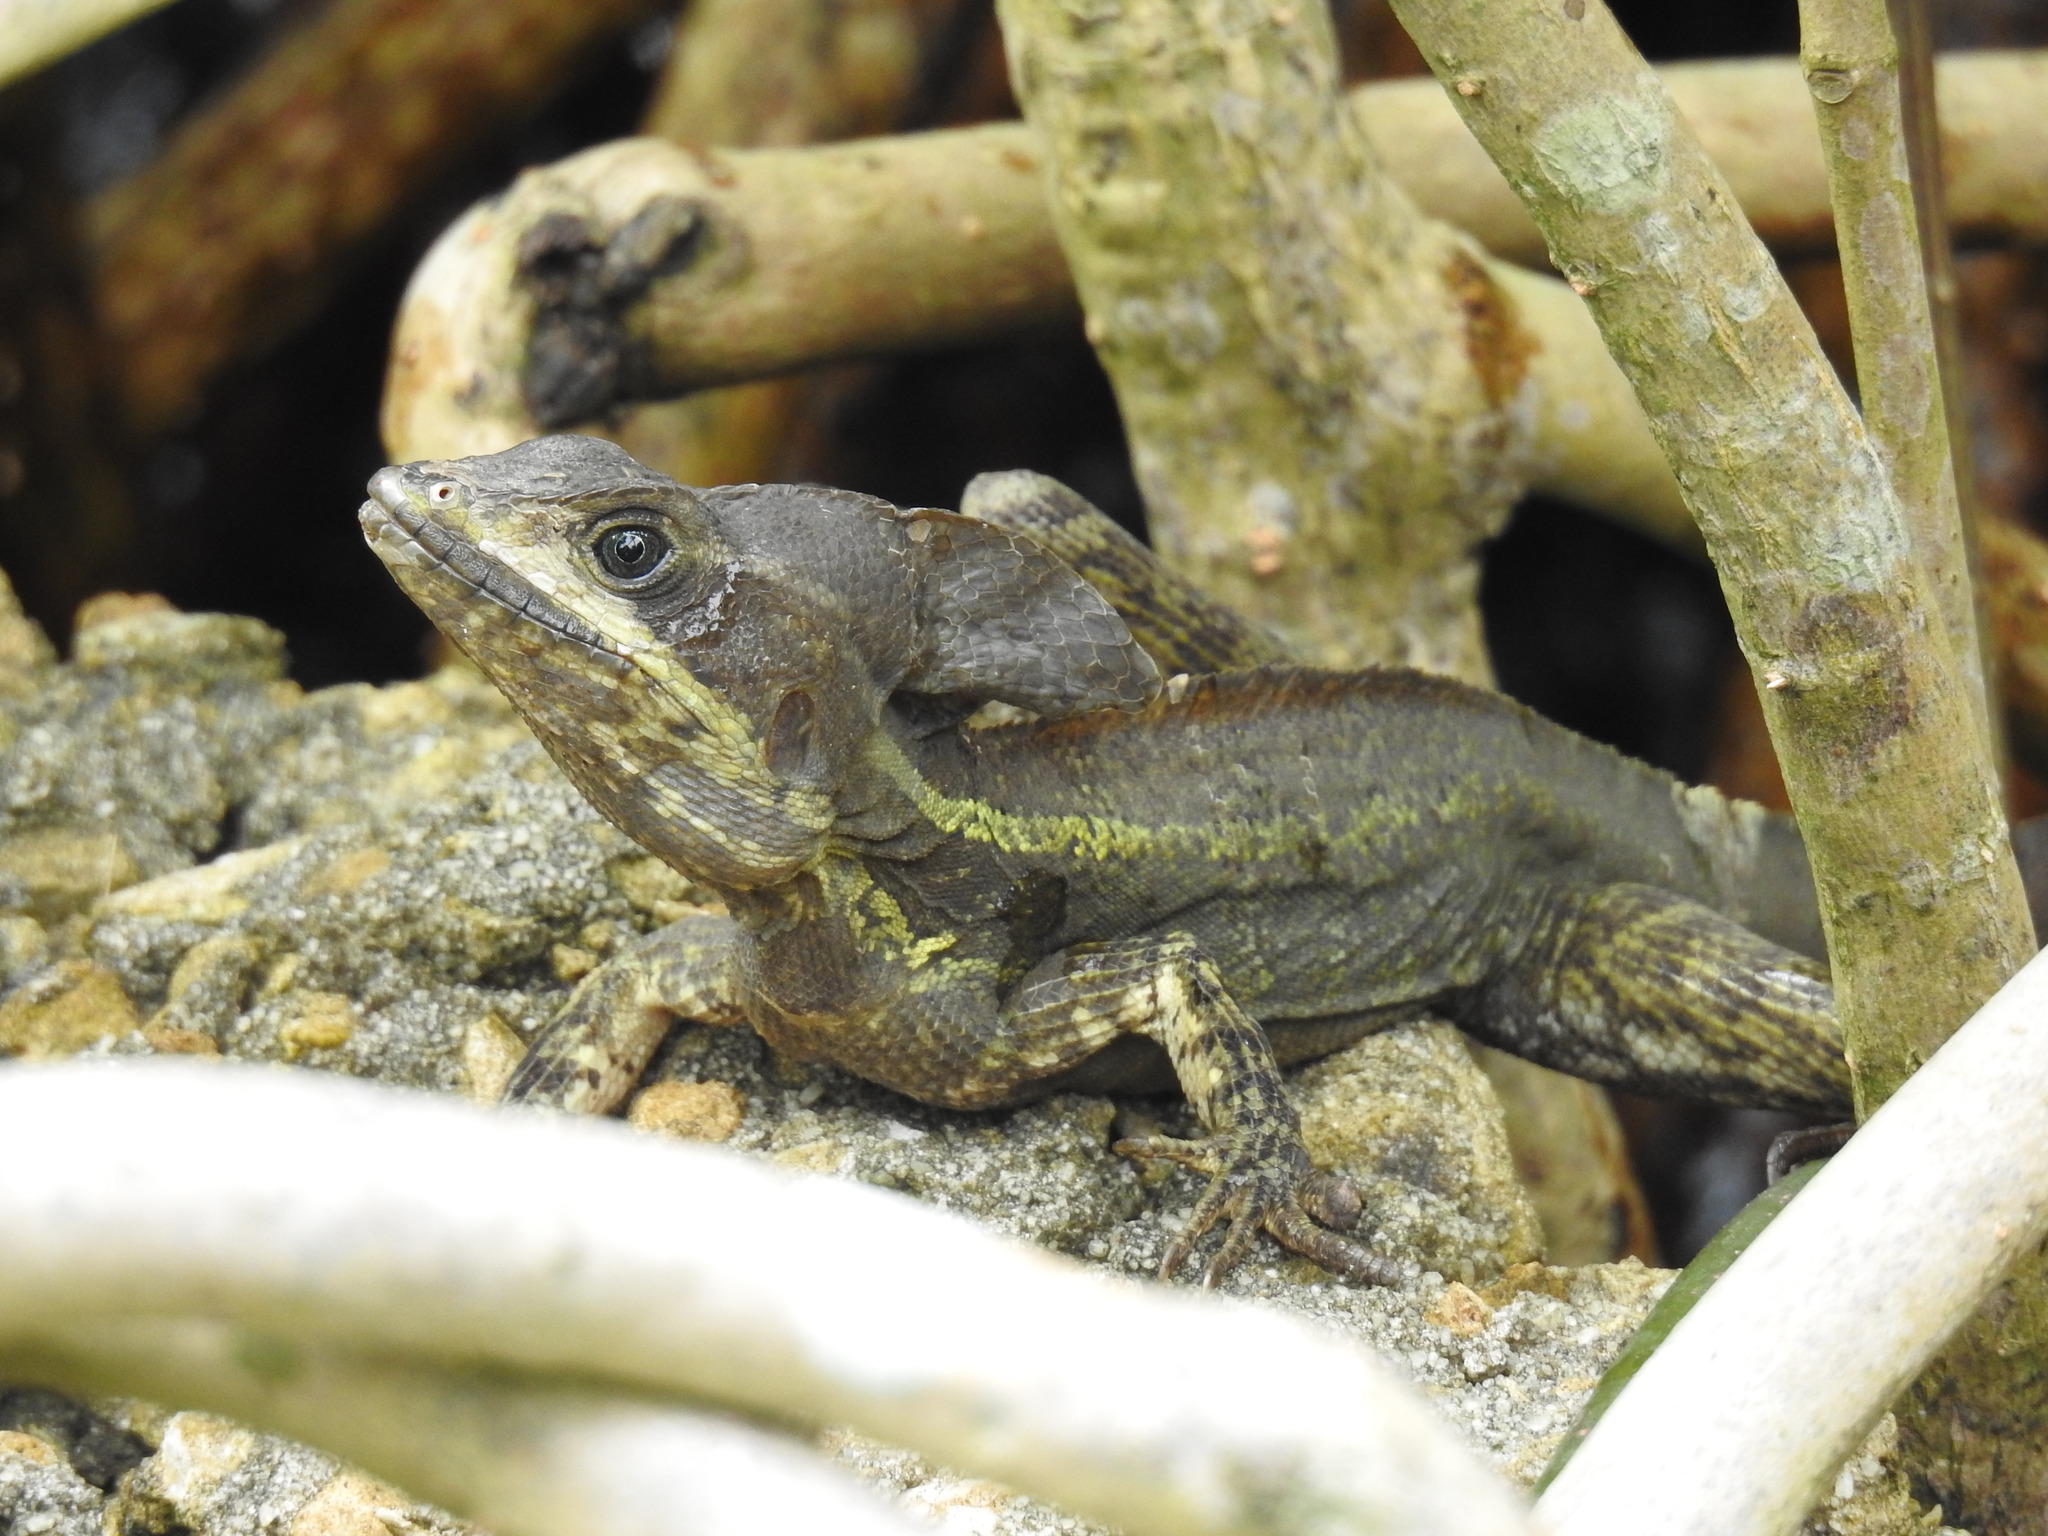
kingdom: Animalia
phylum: Chordata
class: Squamata
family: Corytophanidae
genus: Basiliscus
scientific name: Basiliscus vittatus
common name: Brown basilisk
